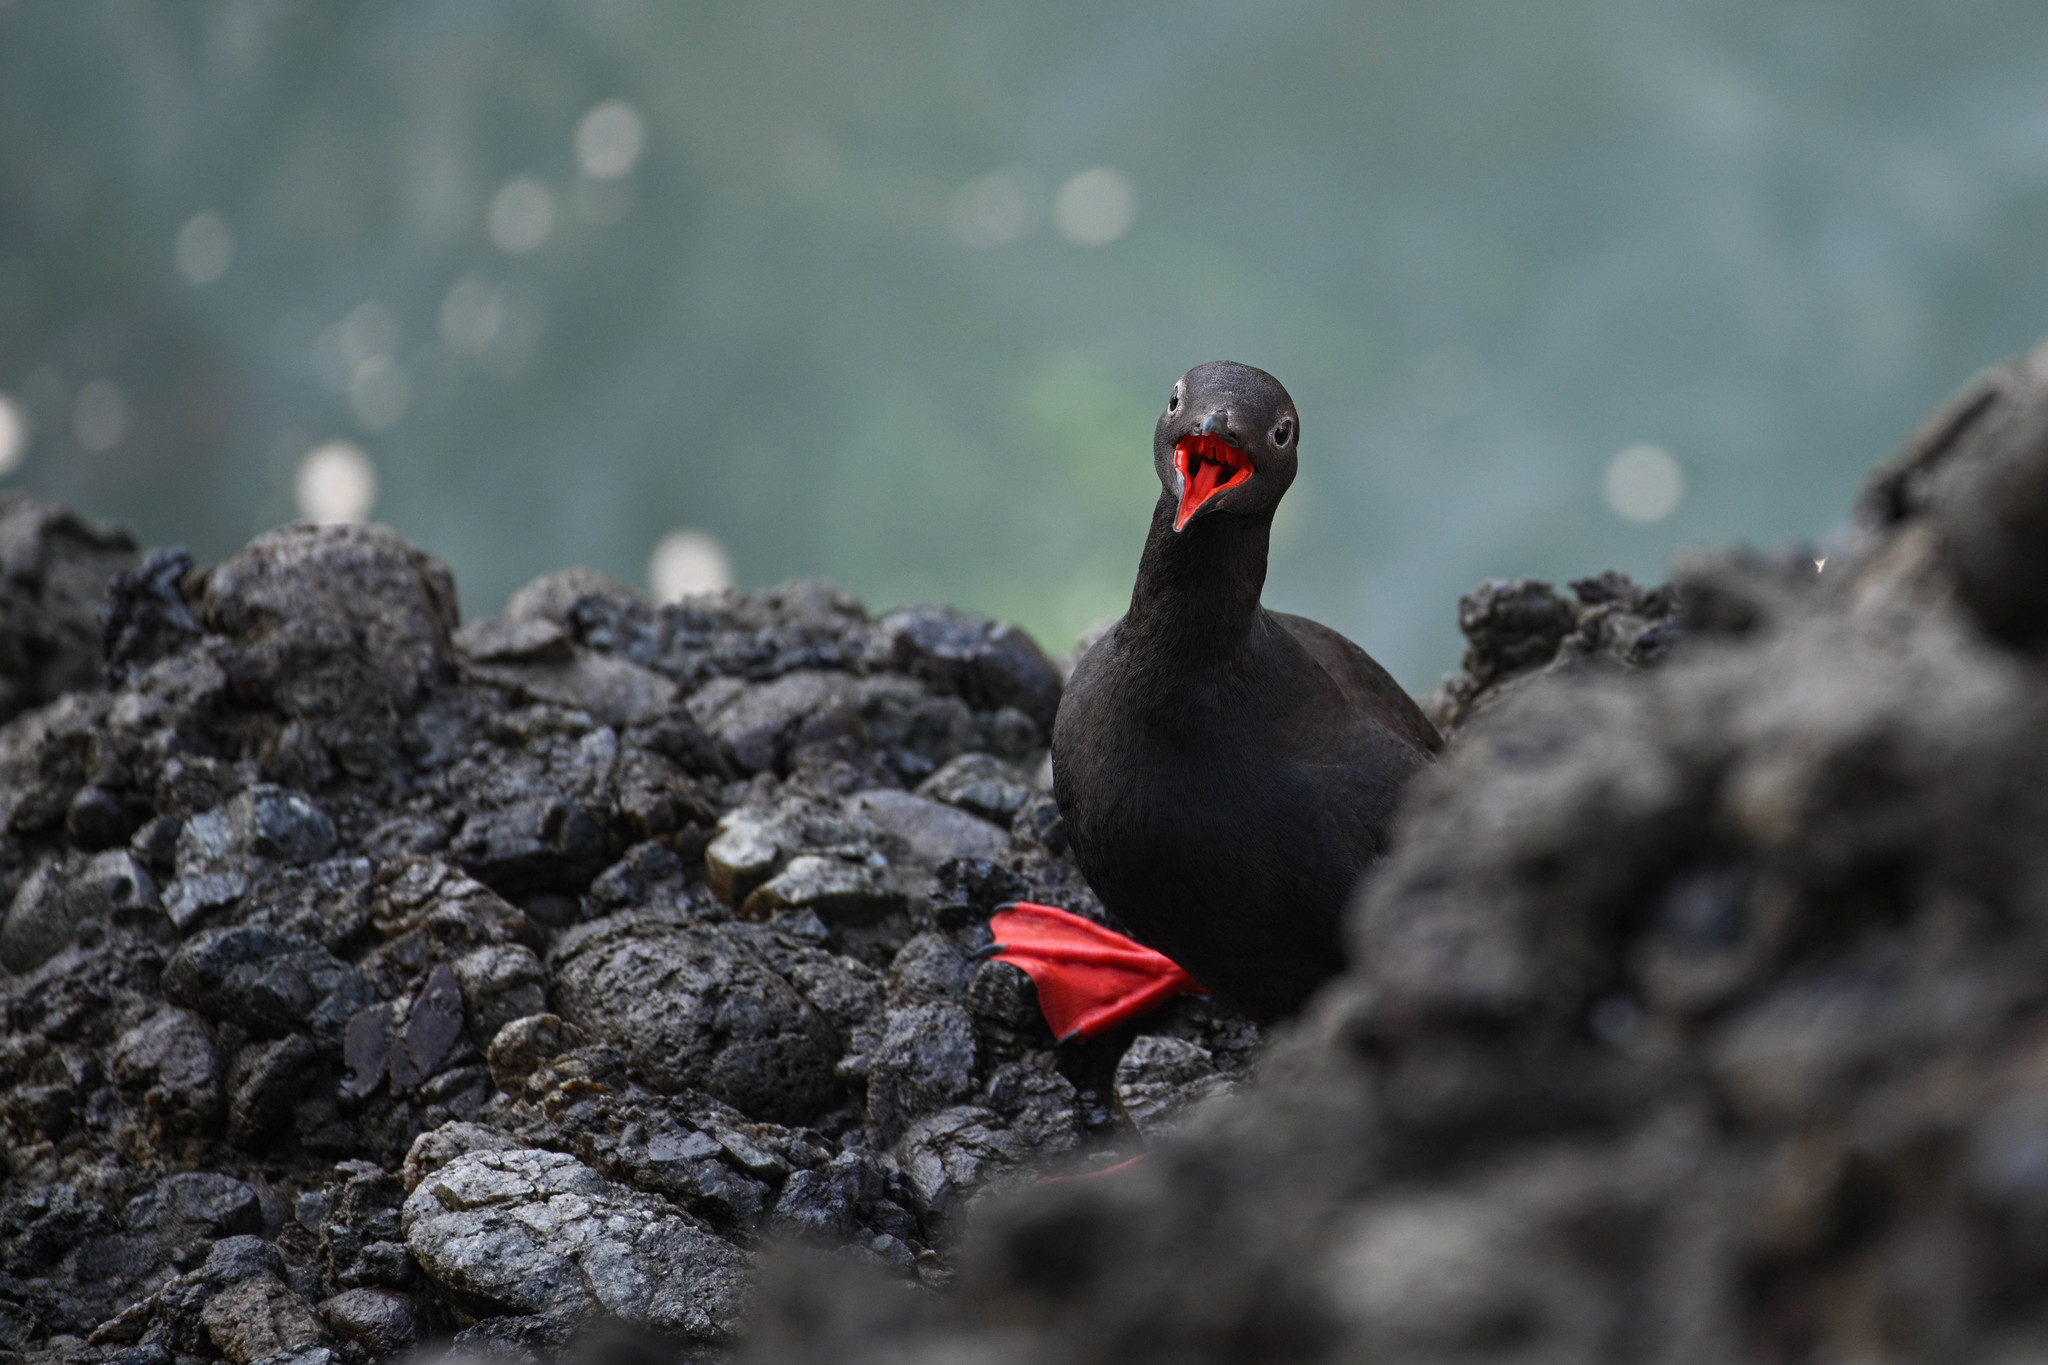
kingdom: Animalia
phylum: Chordata
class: Aves
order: Charadriiformes
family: Alcidae
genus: Cepphus
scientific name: Cepphus columba
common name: Pigeon guillemot
